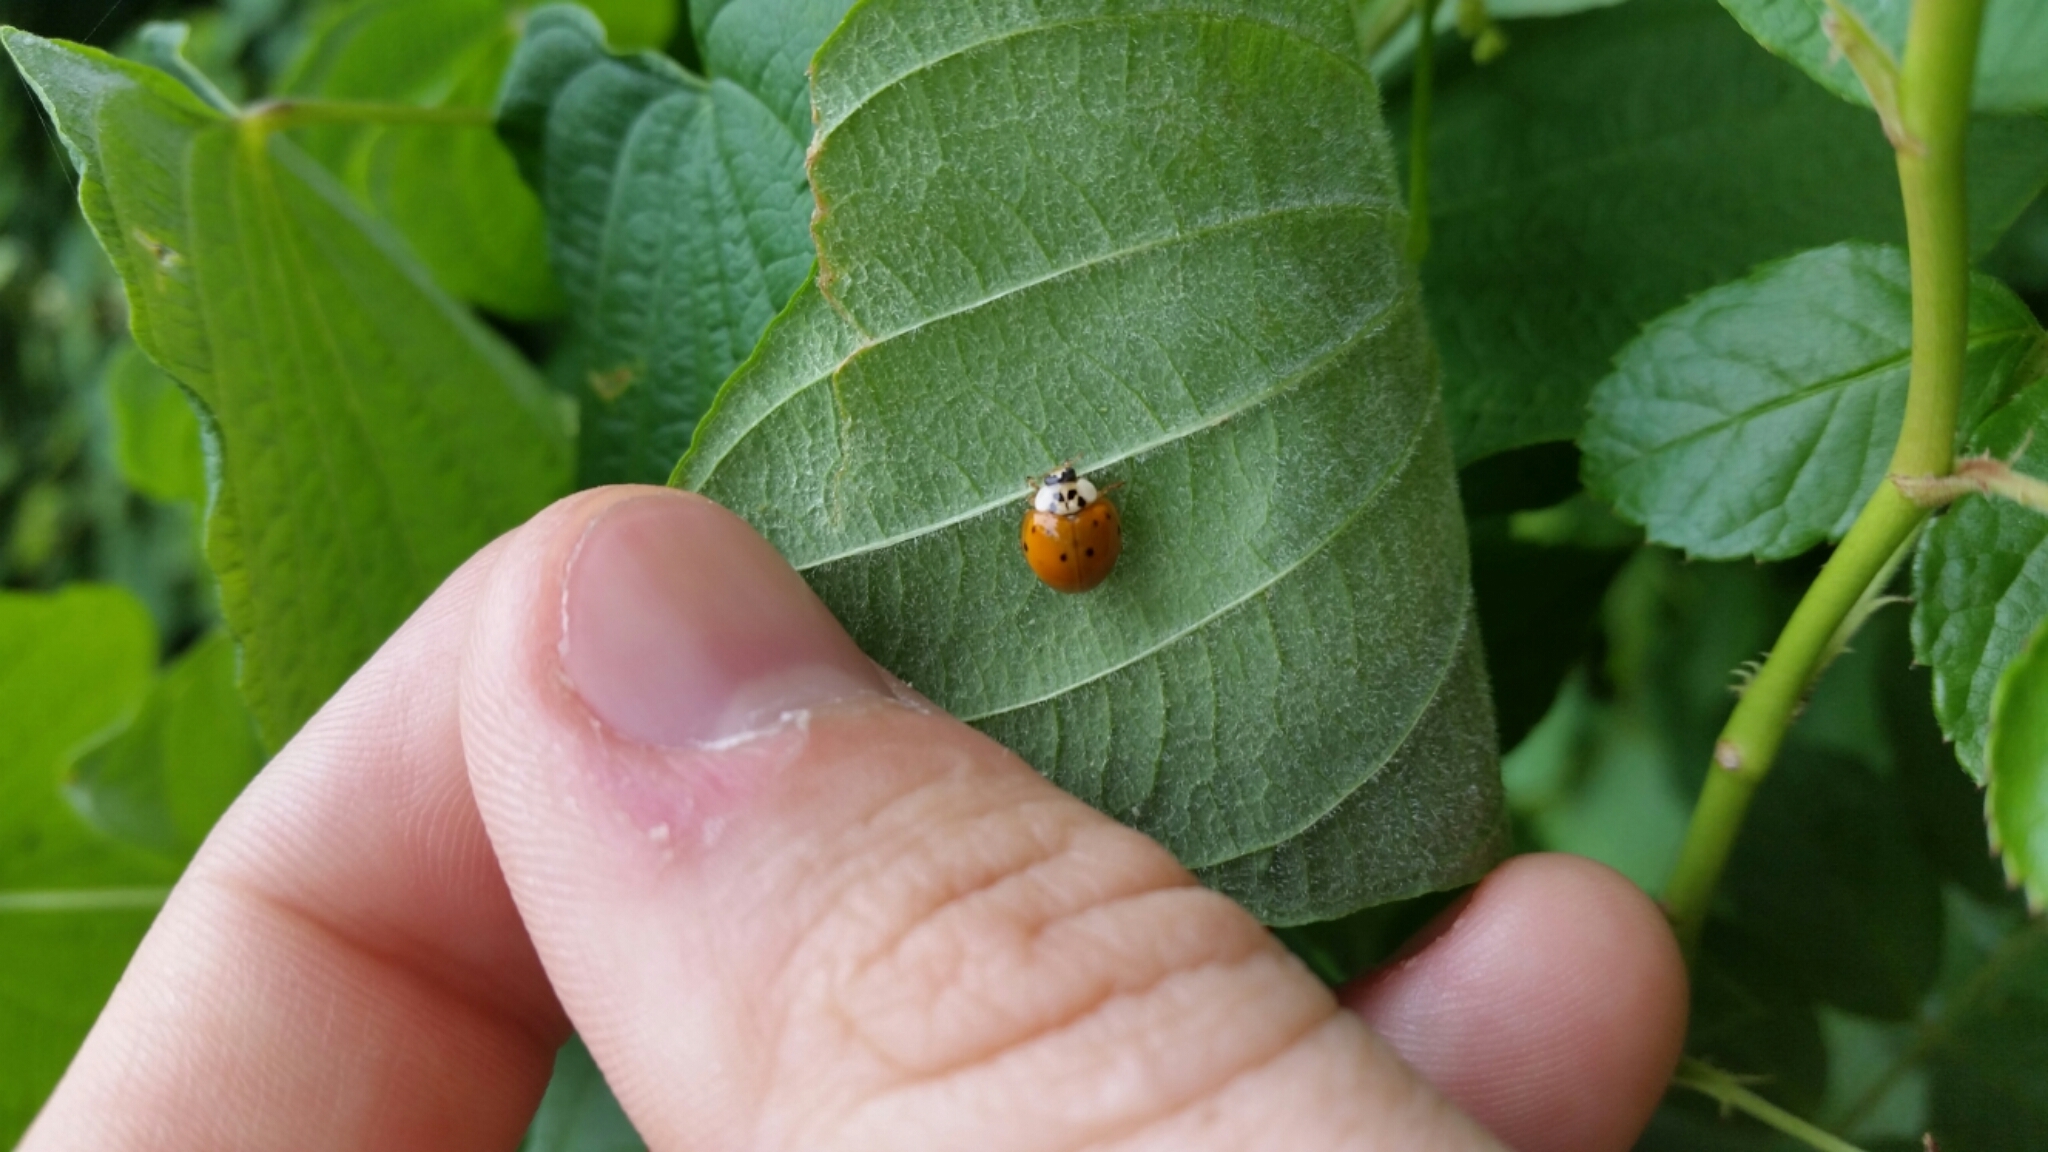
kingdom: Animalia
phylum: Arthropoda
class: Insecta
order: Coleoptera
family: Coccinellidae
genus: Harmonia
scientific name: Harmonia axyridis
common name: Harlequin ladybird
